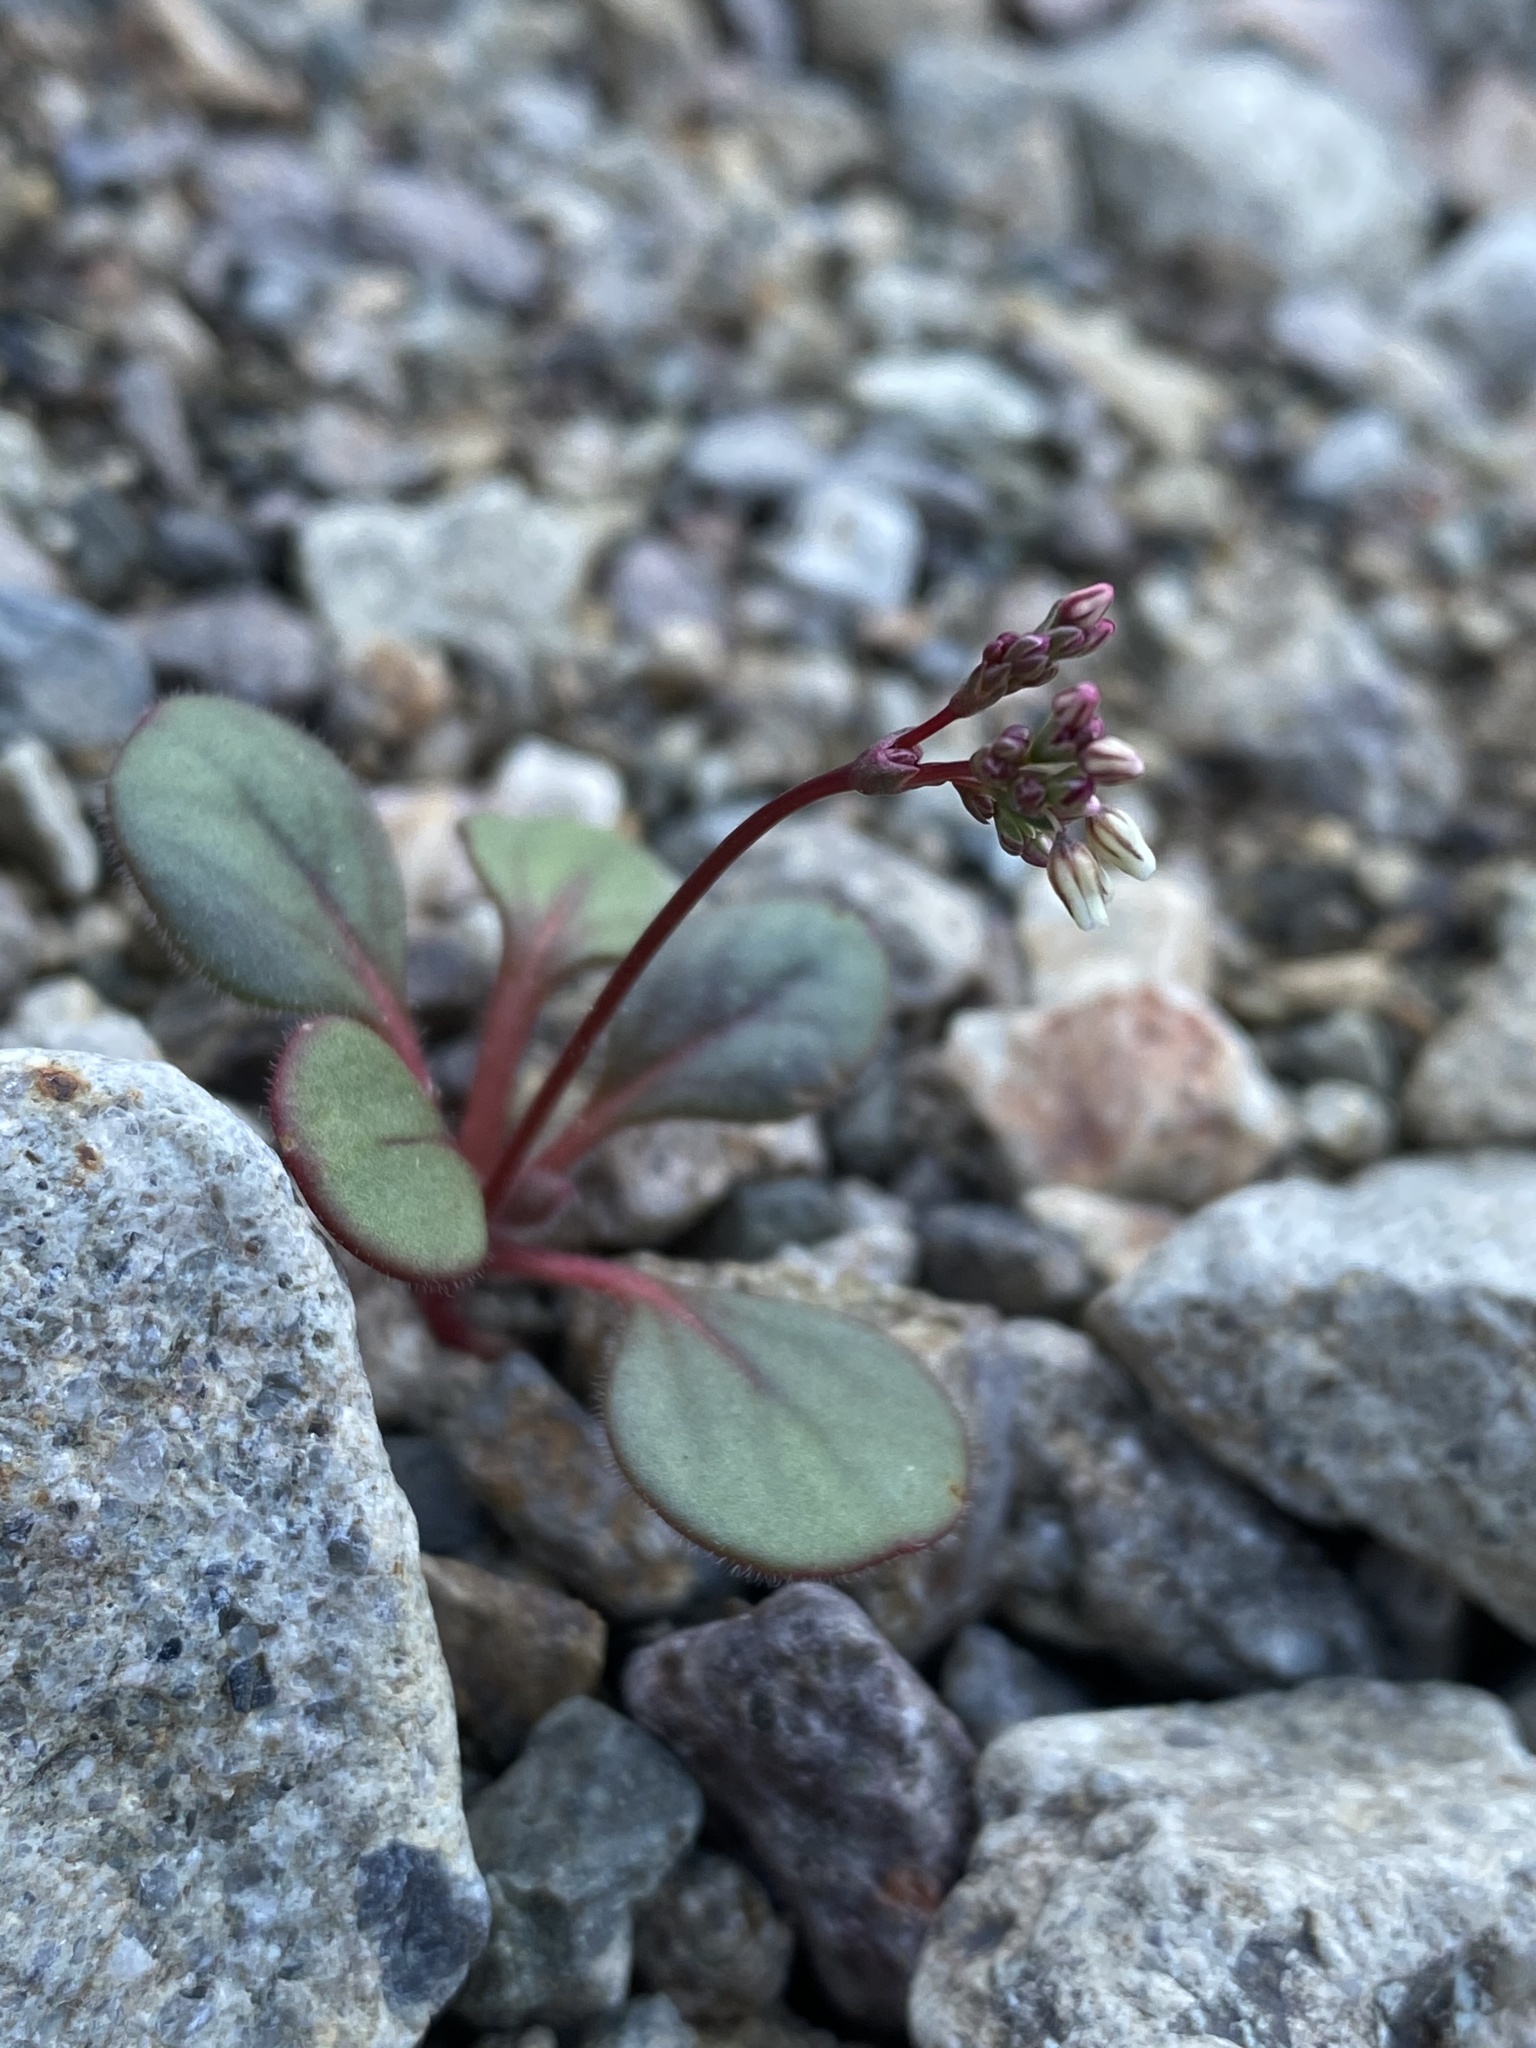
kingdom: Plantae
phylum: Tracheophyta
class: Magnoliopsida
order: Caryophyllales
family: Polygonaceae
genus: Eriogonum
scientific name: Eriogonum esmeraldense
